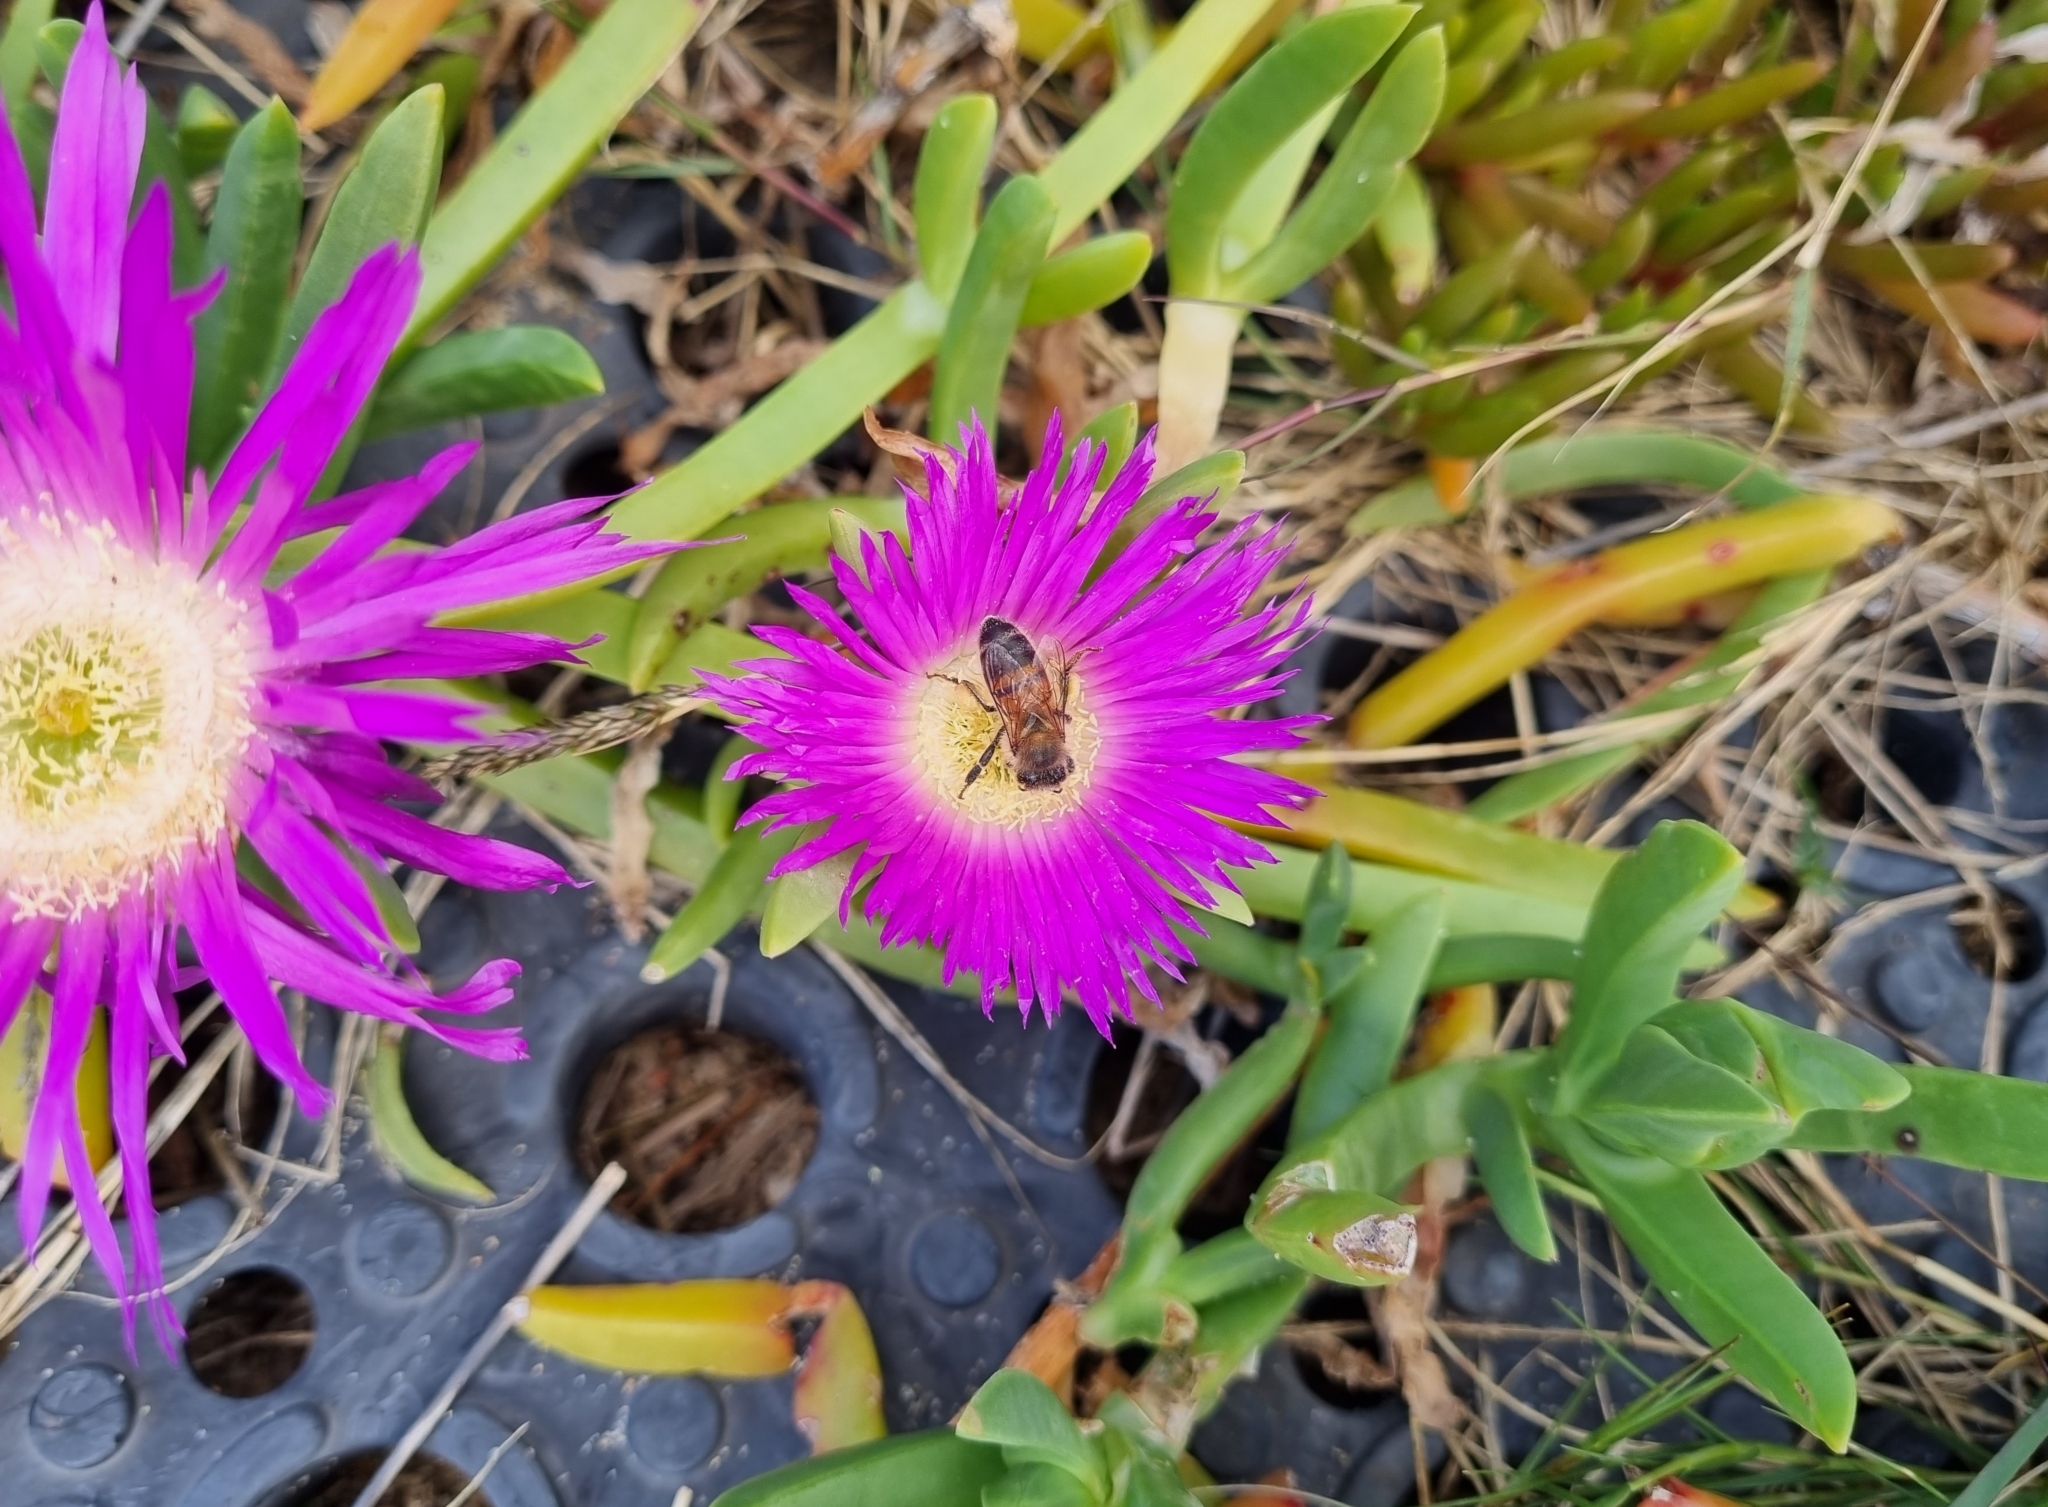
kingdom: Plantae
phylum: Tracheophyta
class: Magnoliopsida
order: Caryophyllales
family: Aizoaceae
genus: Carpobrotus
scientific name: Carpobrotus rossii
